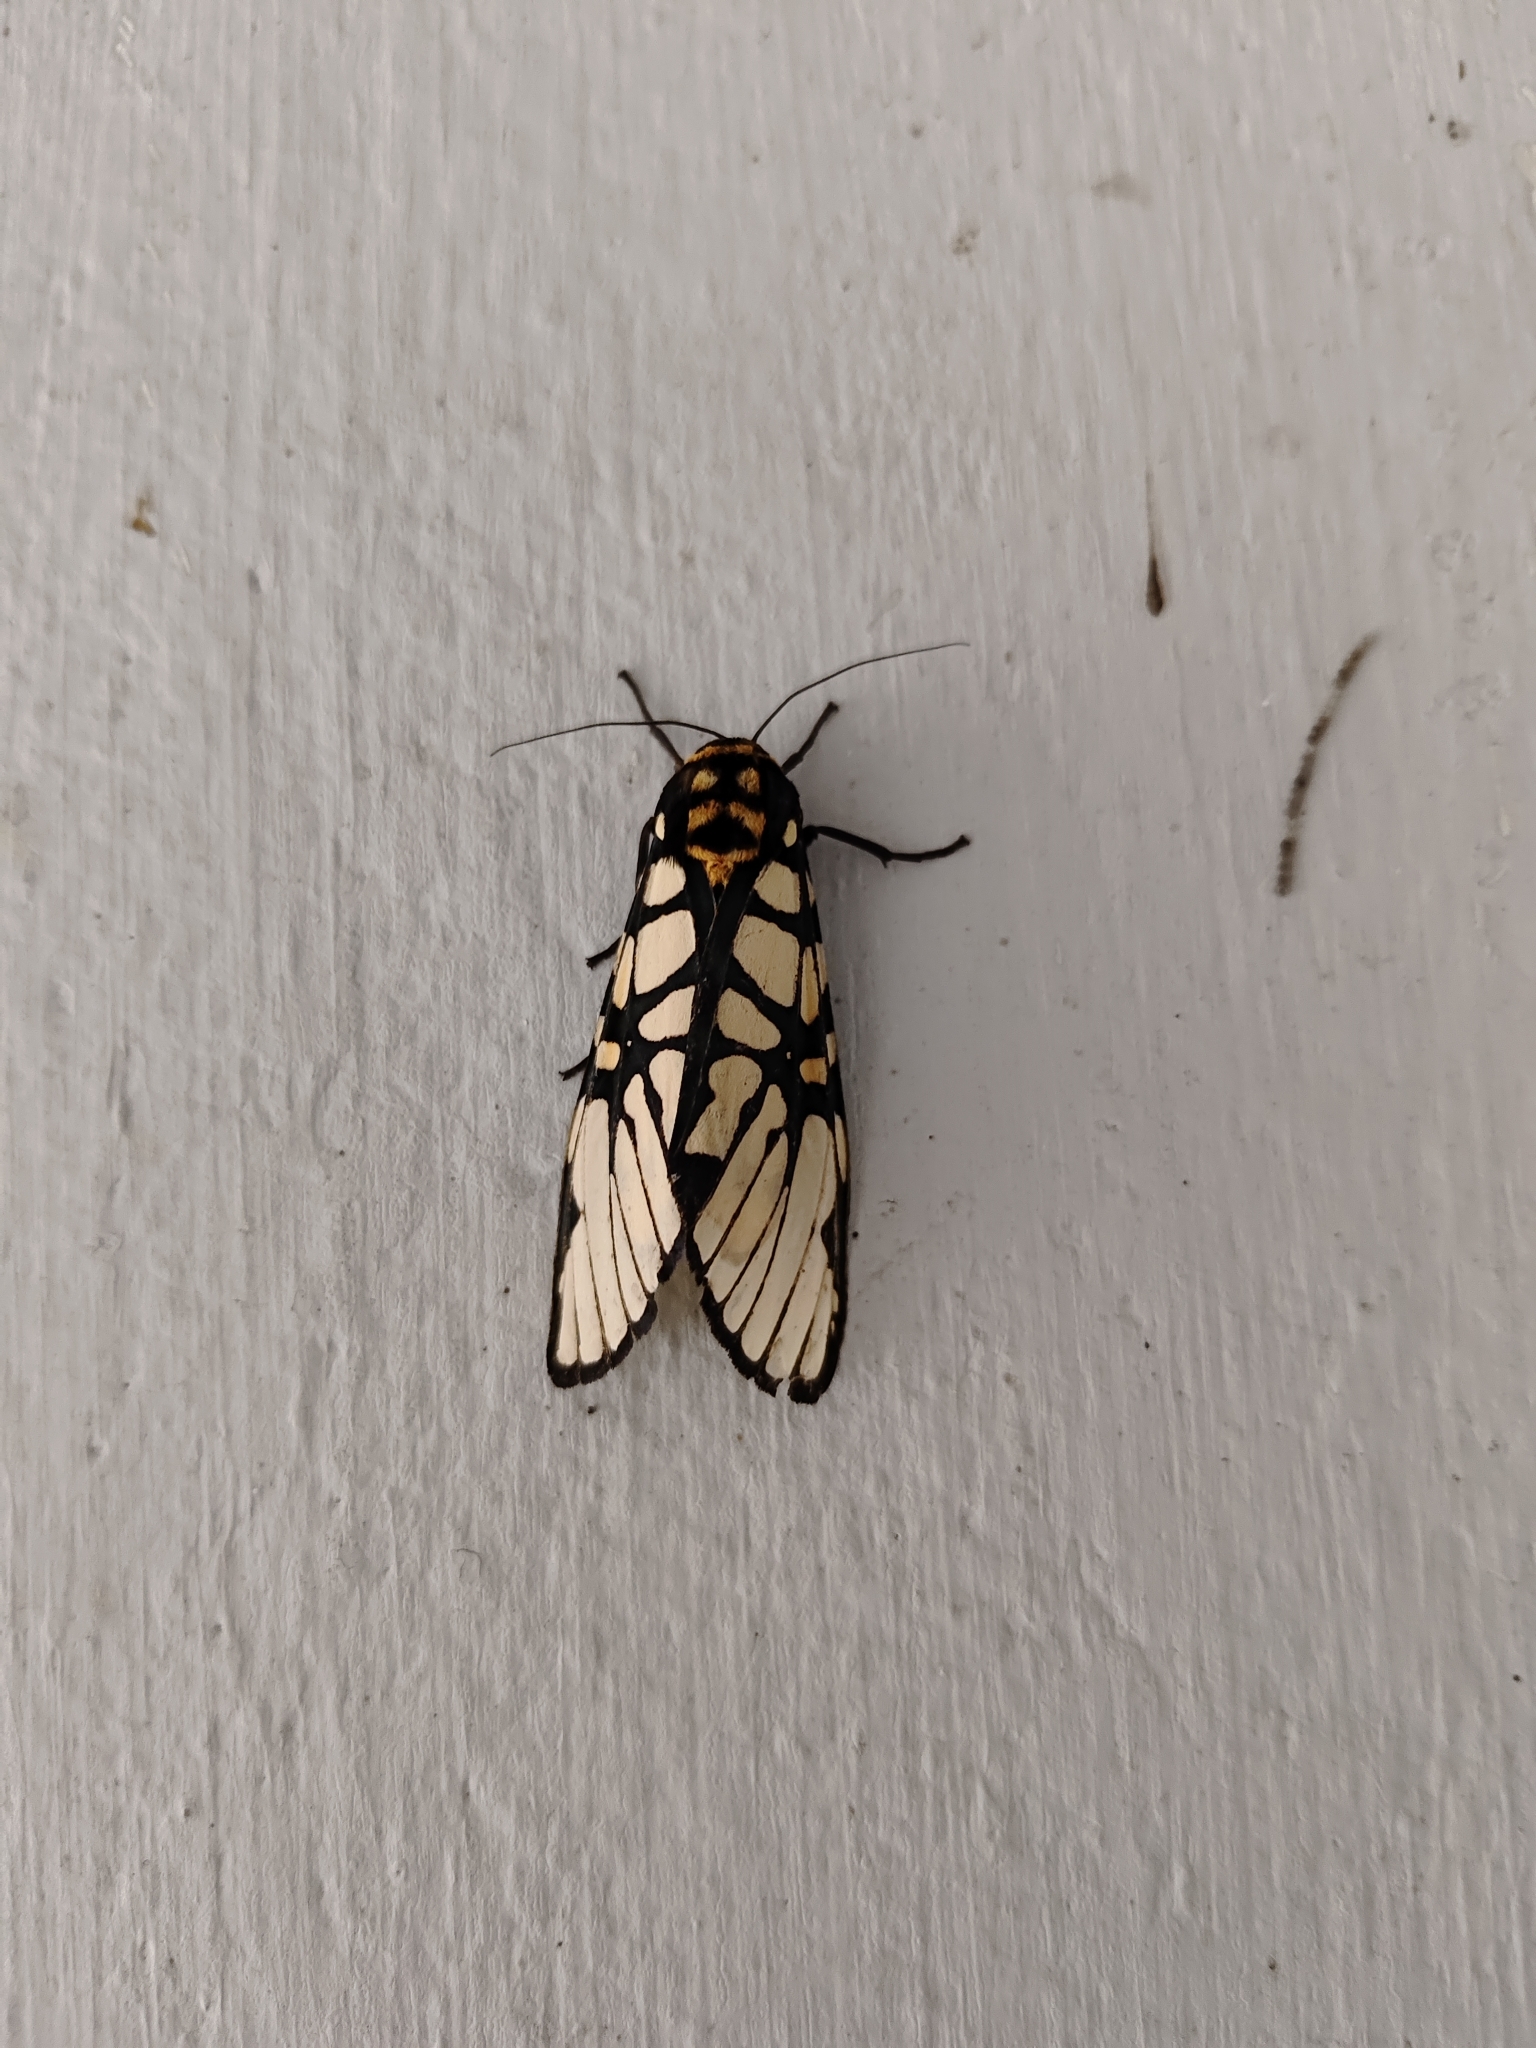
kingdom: Animalia
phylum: Arthropoda
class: Insecta
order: Lepidoptera
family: Erebidae
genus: Aglaomorpha
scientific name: Aglaomorpha plagiata
